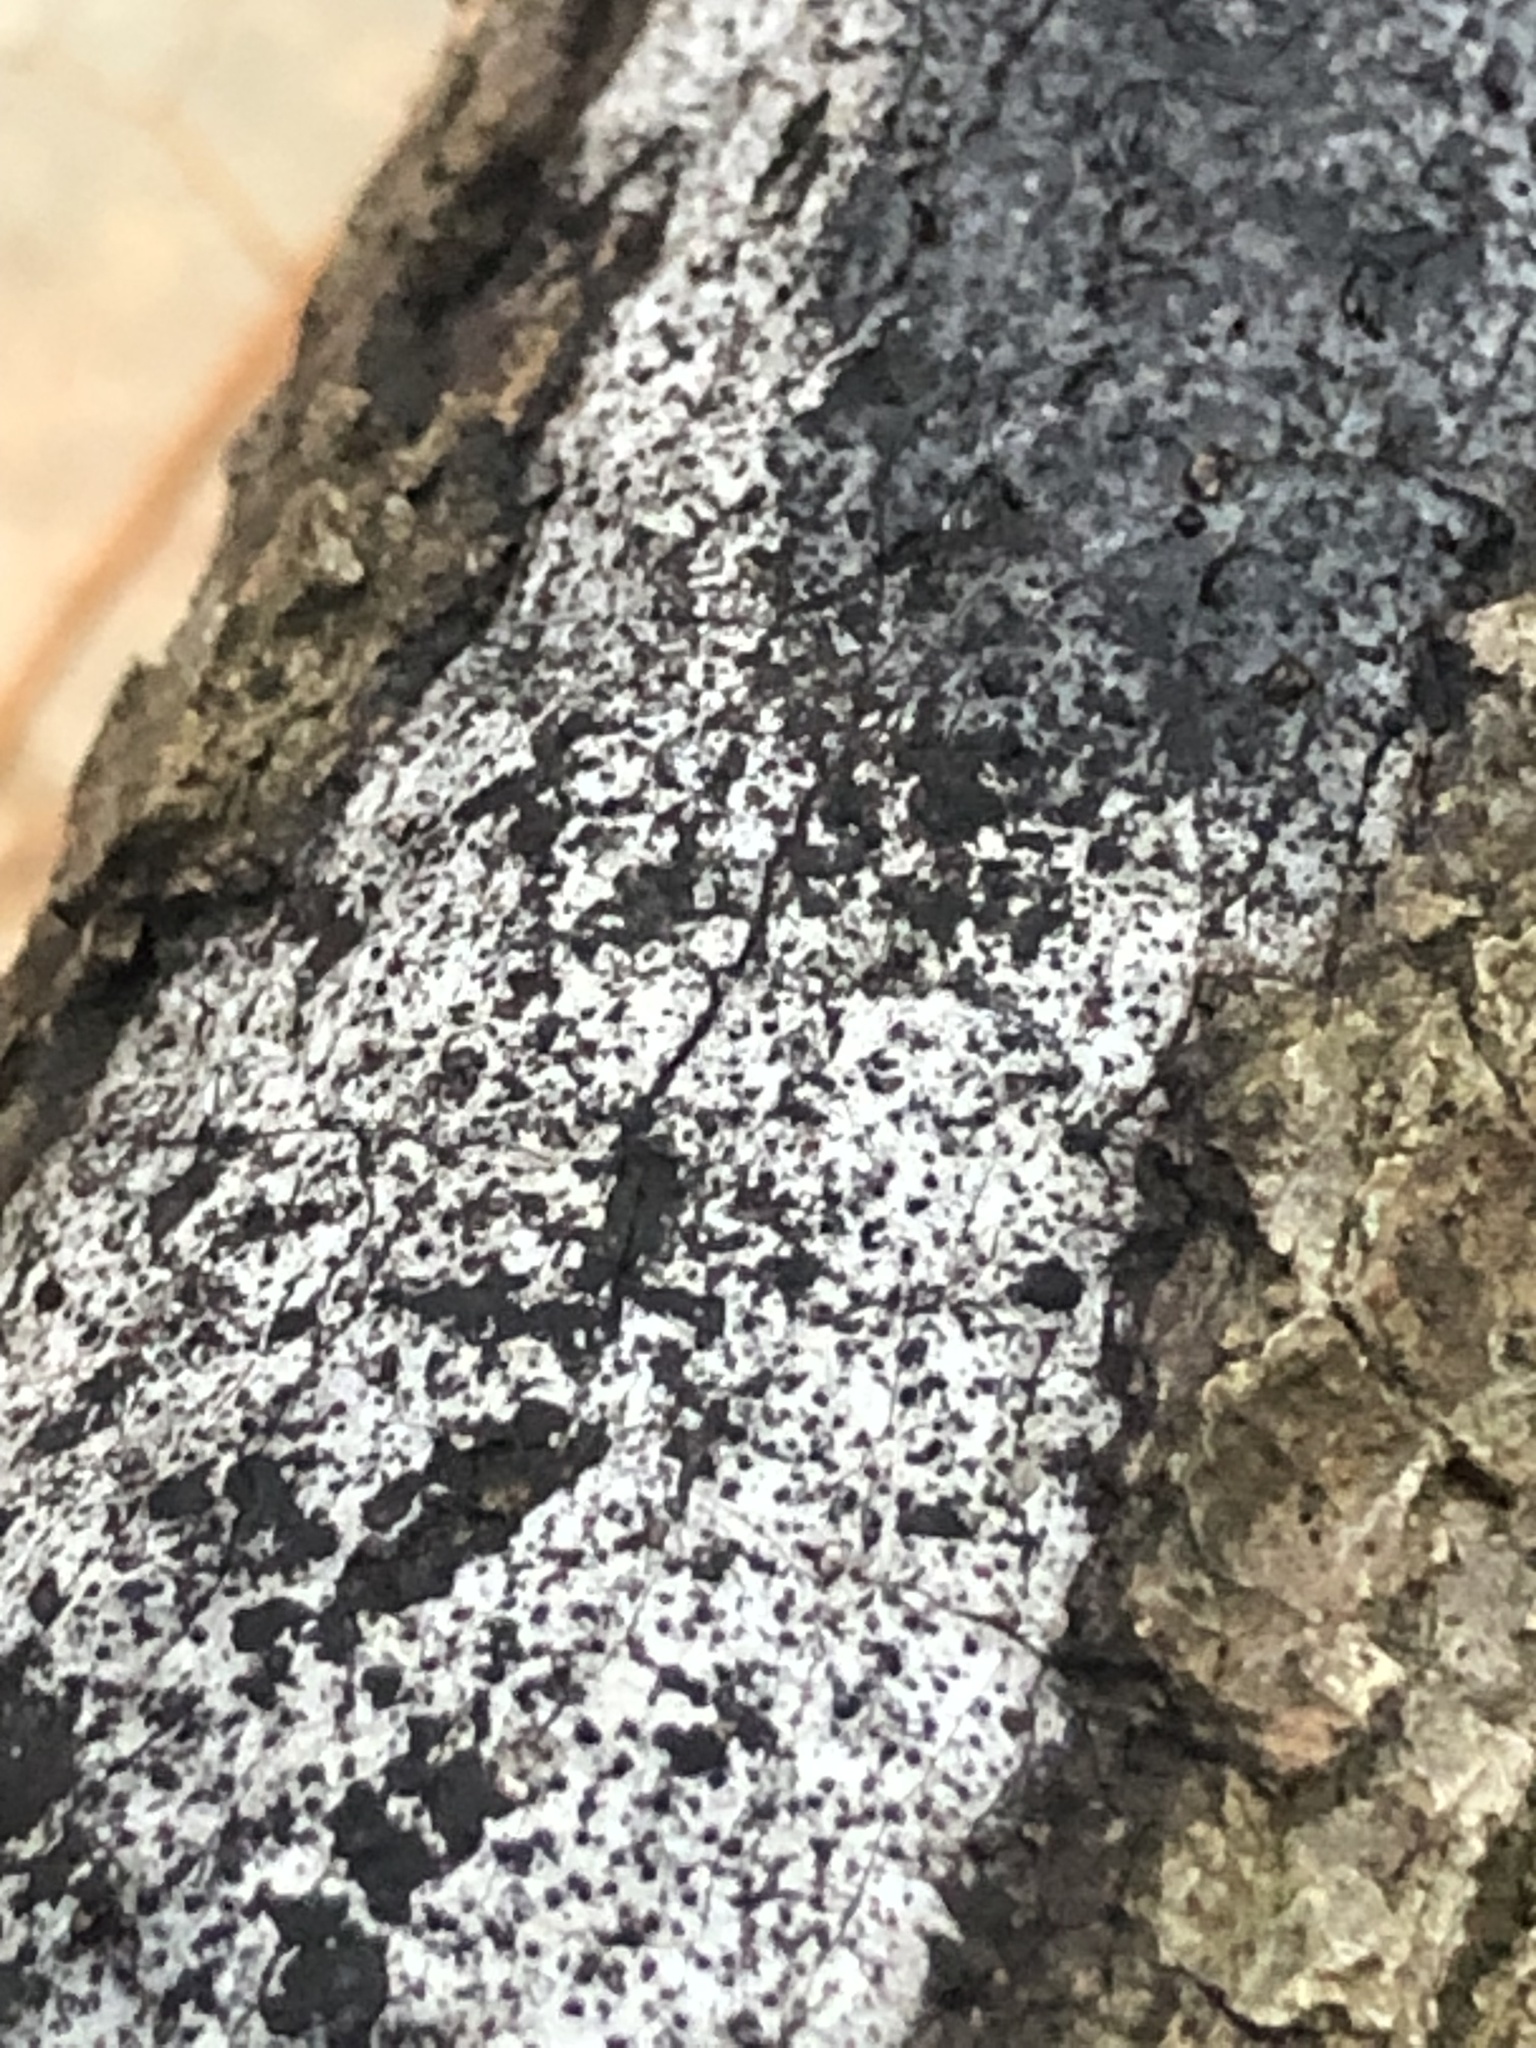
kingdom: Fungi
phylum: Ascomycota
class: Sordariomycetes
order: Xylariales
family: Graphostromataceae
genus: Biscogniauxia
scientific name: Biscogniauxia atropunctata
